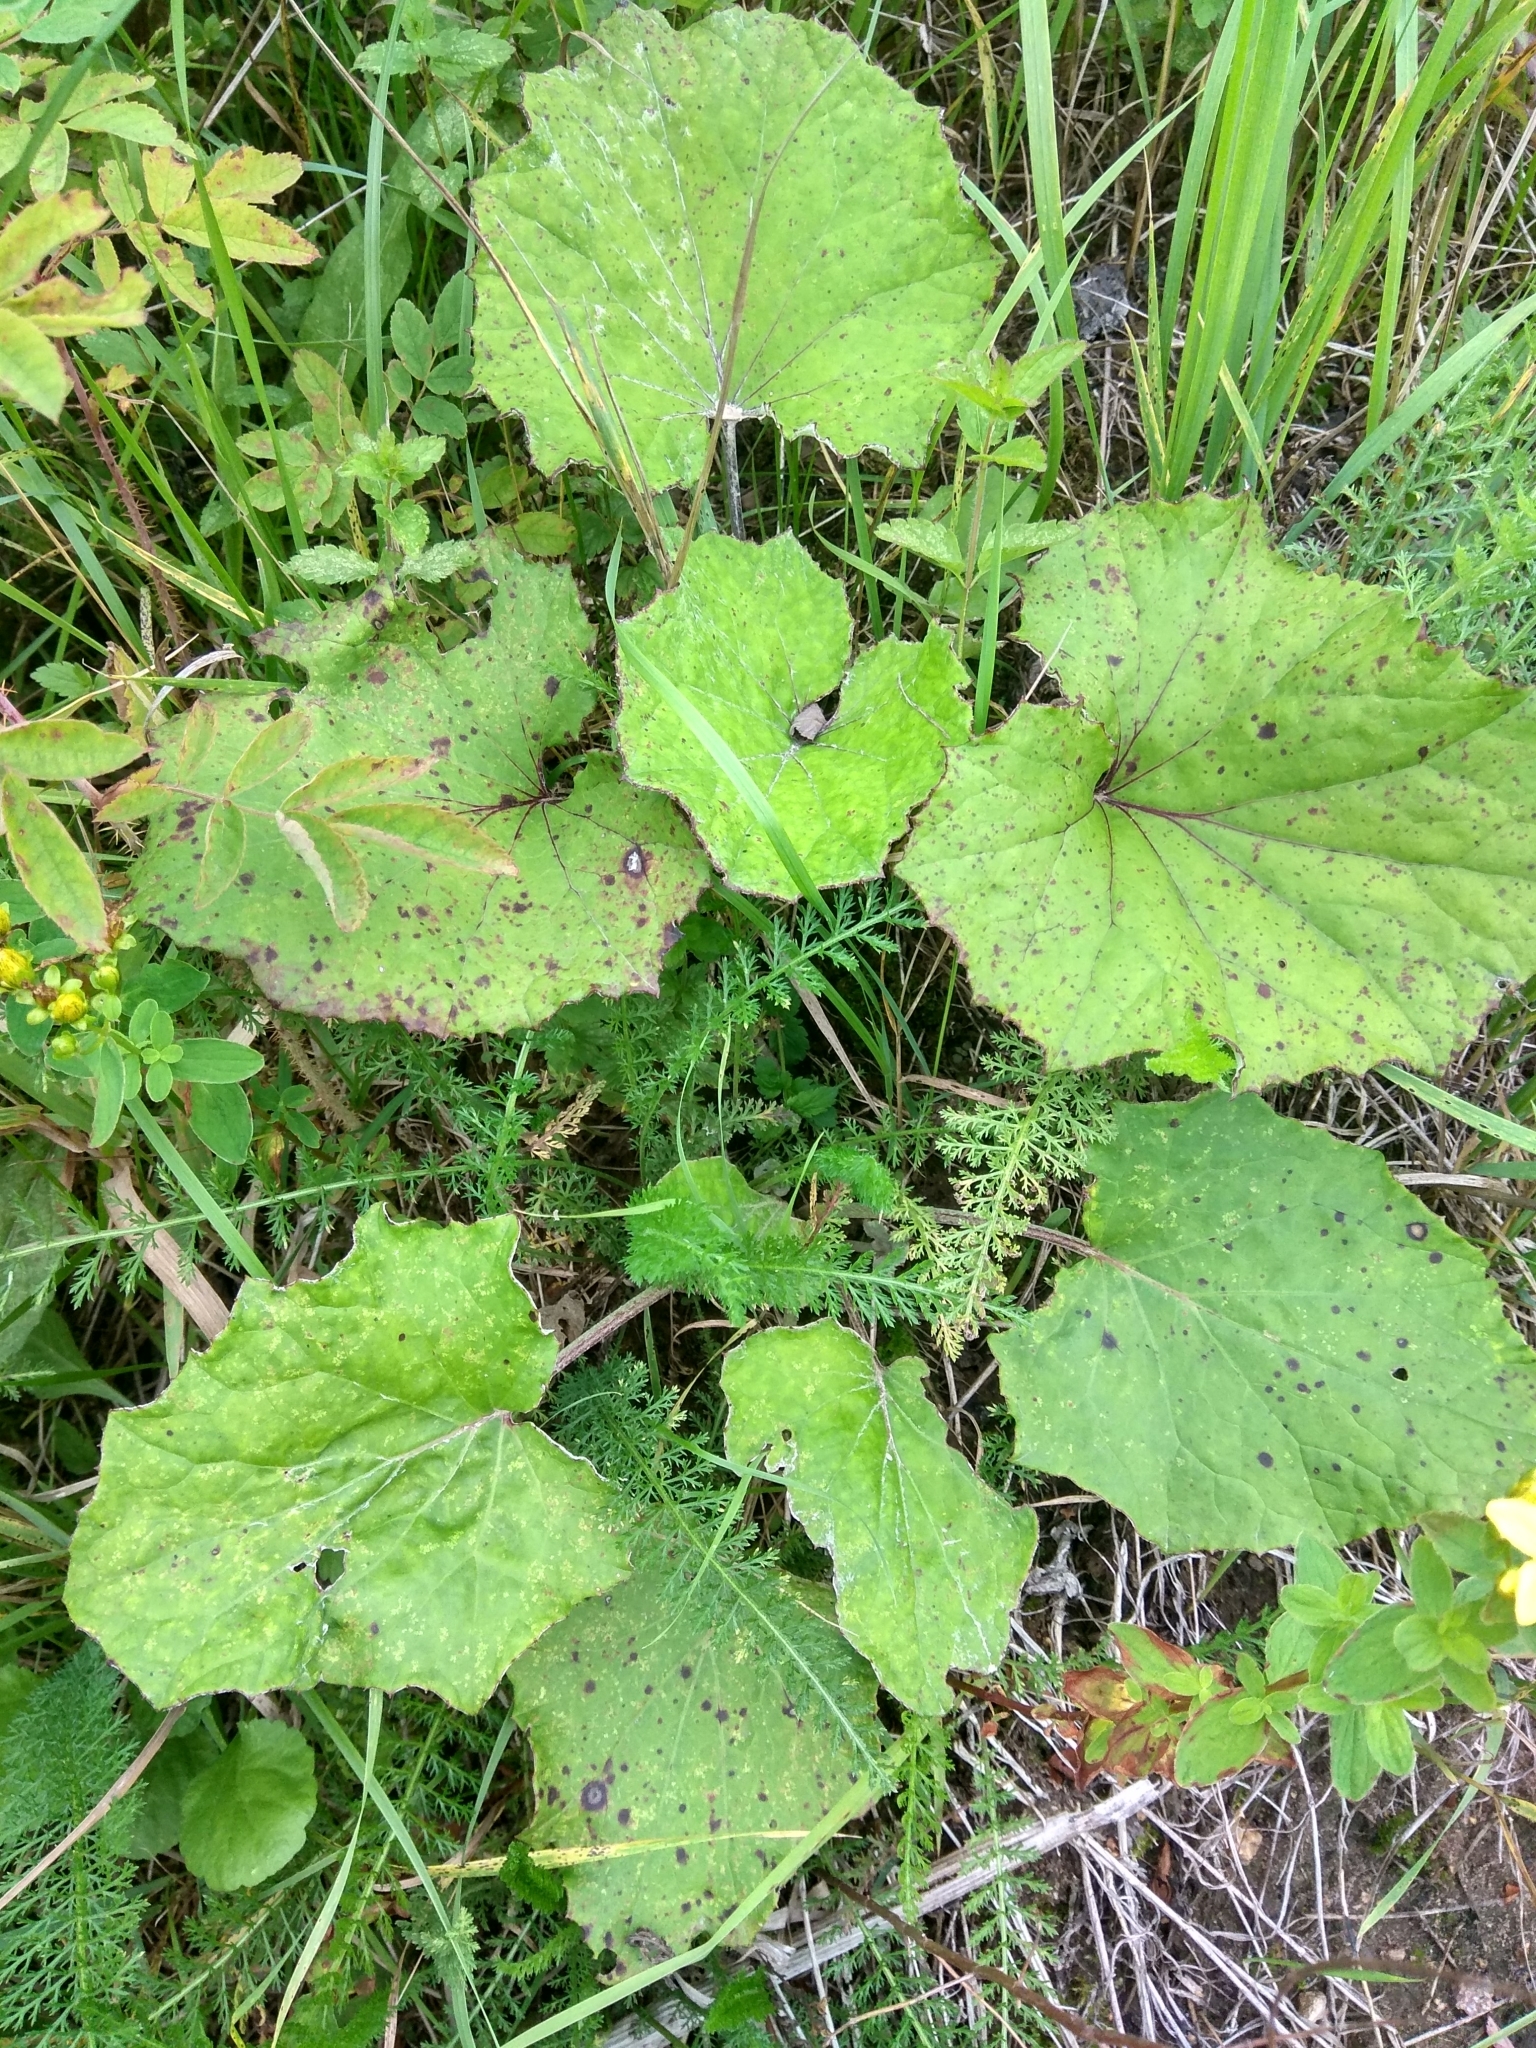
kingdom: Plantae
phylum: Tracheophyta
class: Magnoliopsida
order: Asterales
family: Asteraceae
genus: Tussilago
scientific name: Tussilago farfara
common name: Coltsfoot
